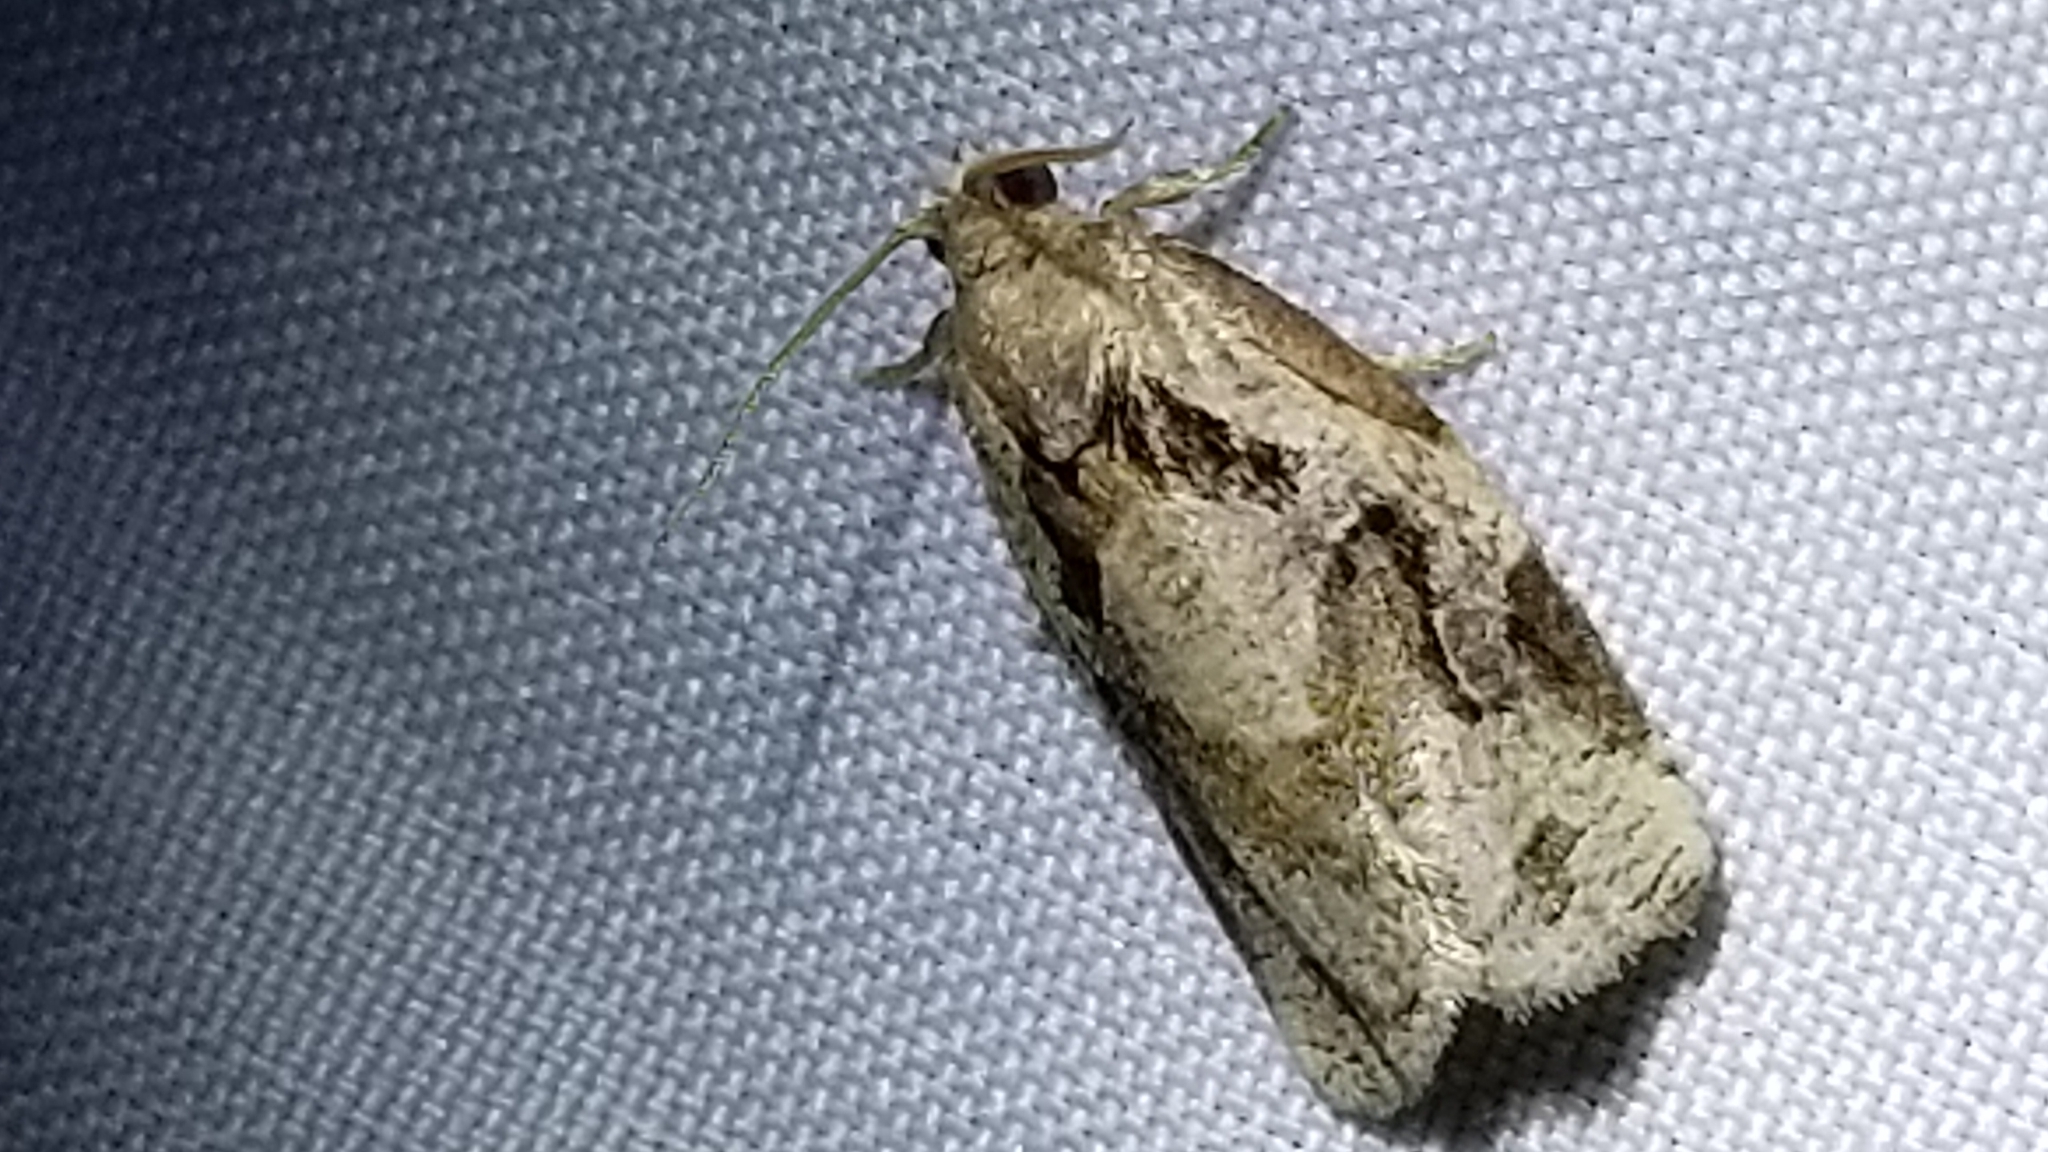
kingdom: Animalia
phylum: Arthropoda
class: Insecta
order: Lepidoptera
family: Tortricidae
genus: Archips
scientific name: Archips grisea
